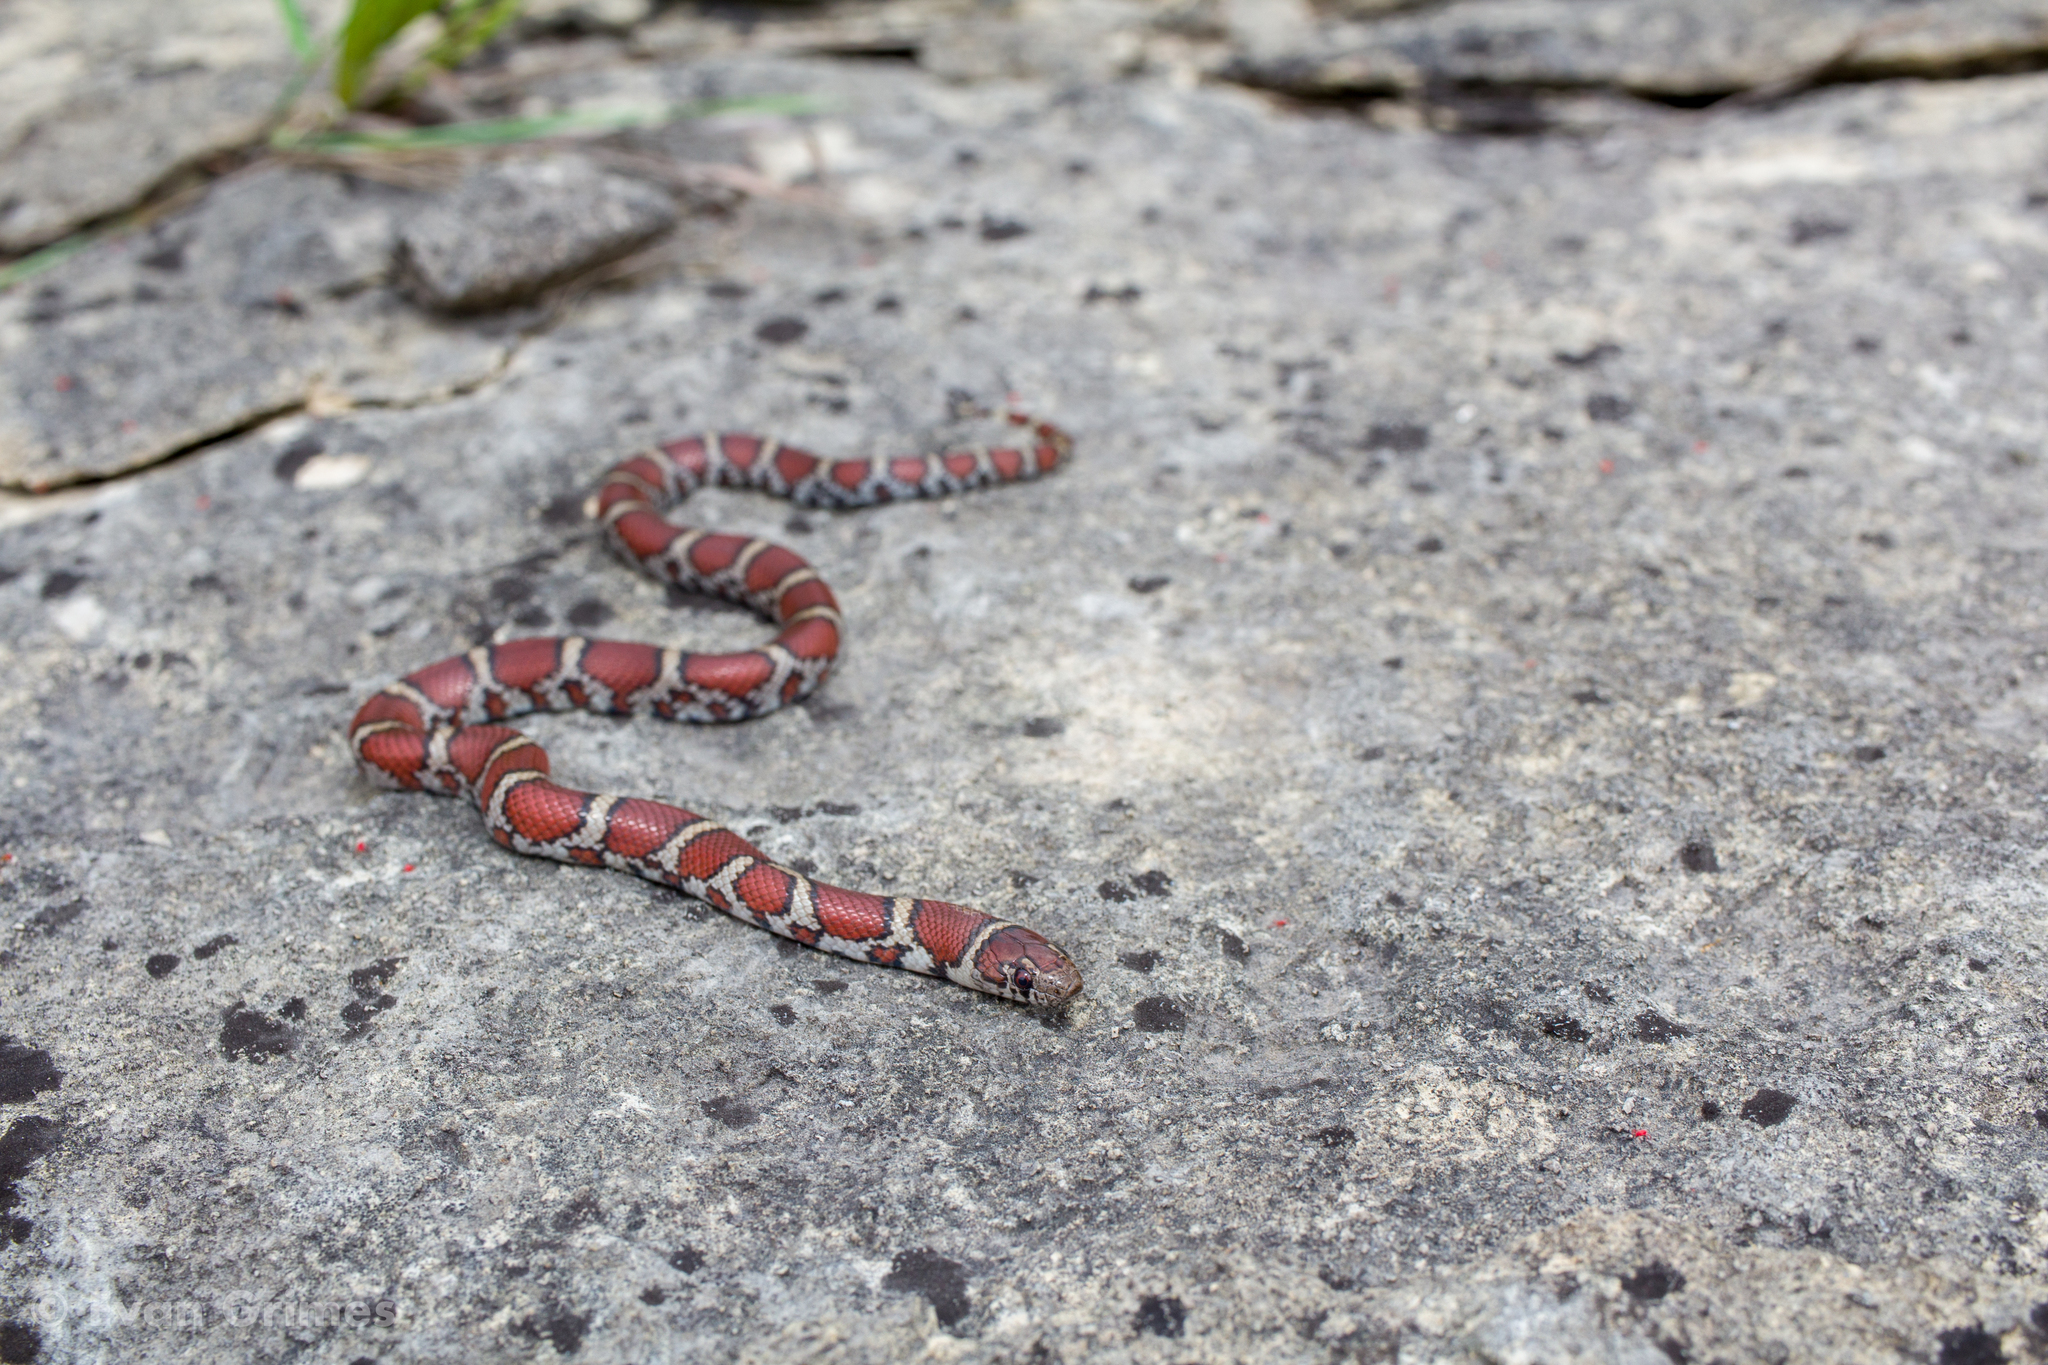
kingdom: Animalia
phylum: Chordata
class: Squamata
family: Colubridae
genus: Lampropeltis
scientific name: Lampropeltis triangulum
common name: Eastern milksnake
